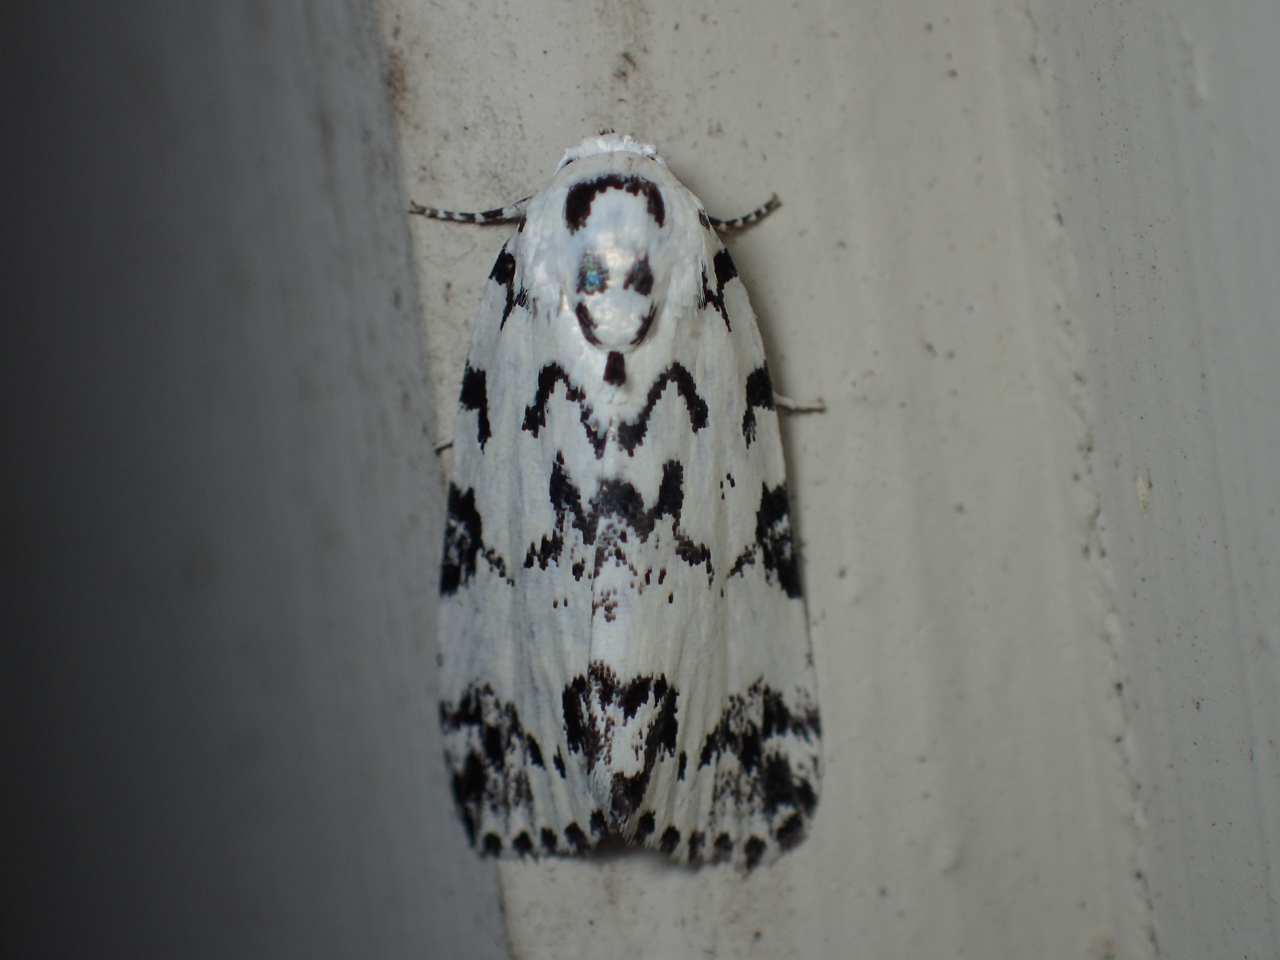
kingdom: Animalia
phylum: Arthropoda
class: Insecta
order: Lepidoptera
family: Noctuidae
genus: Polygrammate
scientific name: Polygrammate hebraeicum
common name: Hebrew moth
